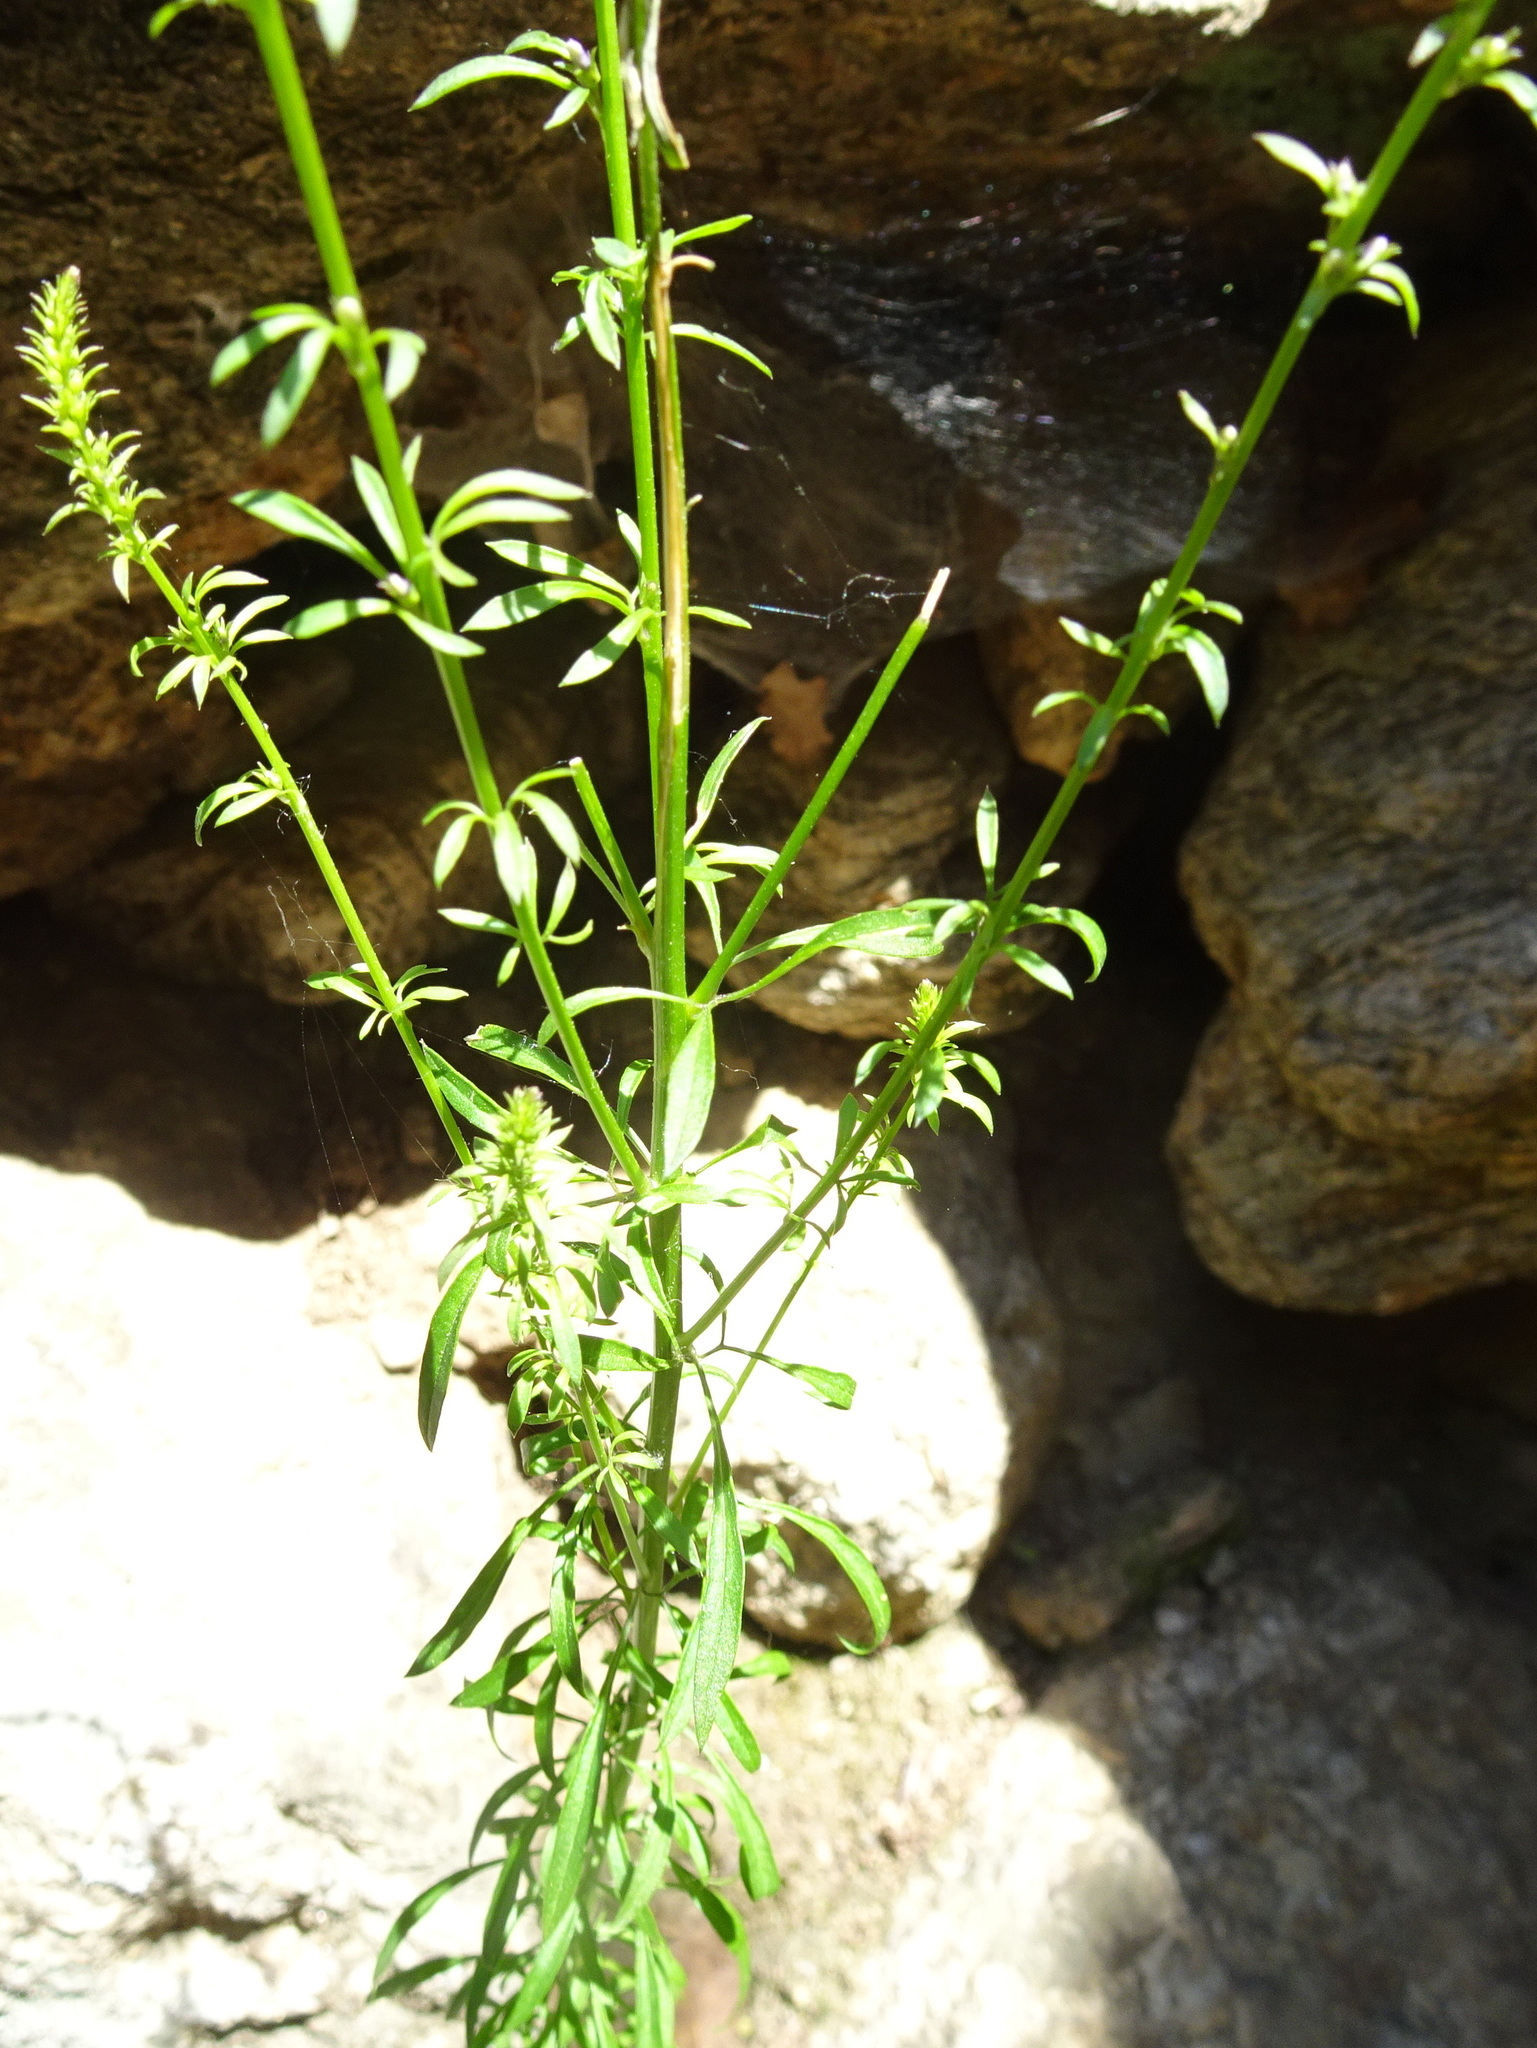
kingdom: Plantae
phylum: Tracheophyta
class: Magnoliopsida
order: Lamiales
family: Plantaginaceae
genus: Anarrhinum
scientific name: Anarrhinum bellidifolium
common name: Daisy-leaved toadflax
